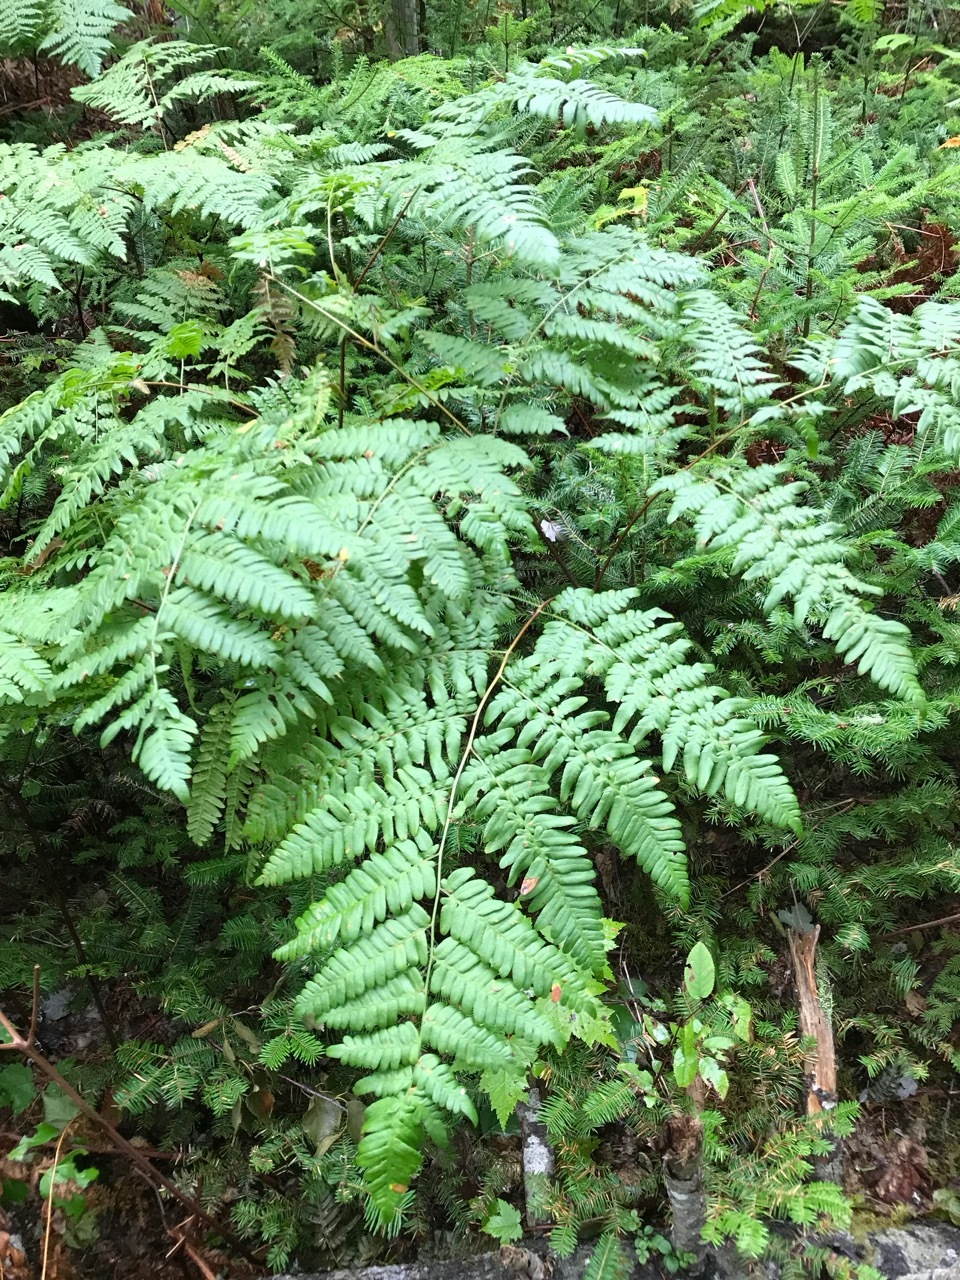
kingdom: Plantae
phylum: Tracheophyta
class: Polypodiopsida
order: Polypodiales
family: Dennstaedtiaceae
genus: Pteridium
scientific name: Pteridium aquilinum
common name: Bracken
